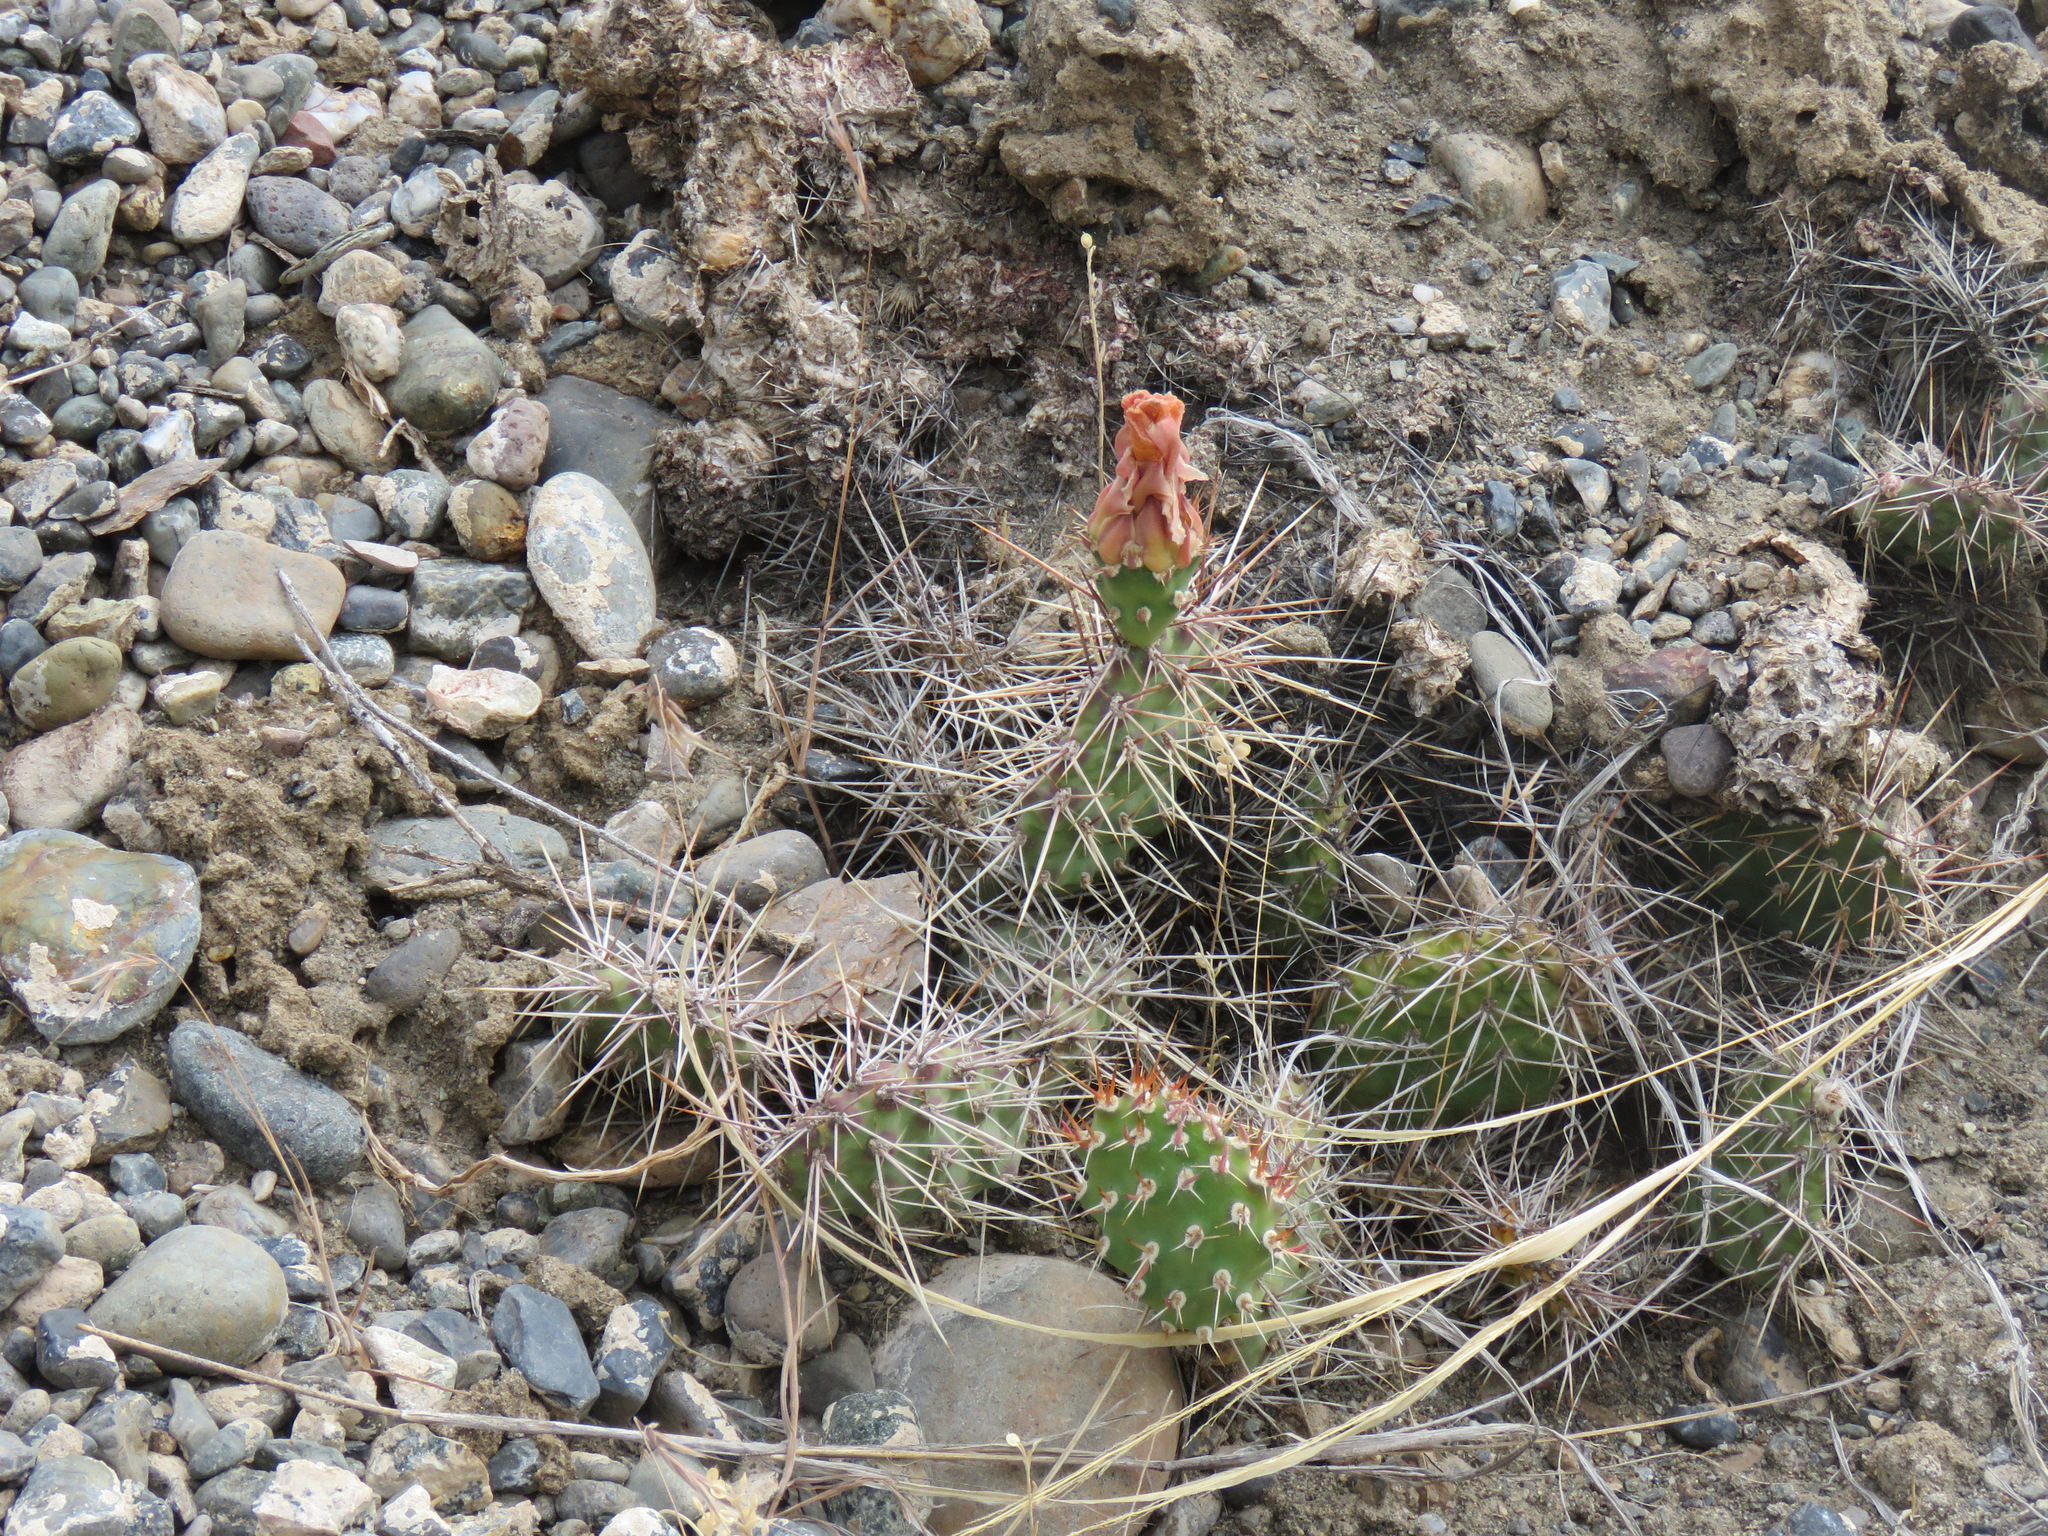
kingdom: Plantae
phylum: Tracheophyta
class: Magnoliopsida
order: Caryophyllales
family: Cactaceae
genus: Opuntia
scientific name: Opuntia fragilis
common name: Brittle cactus
